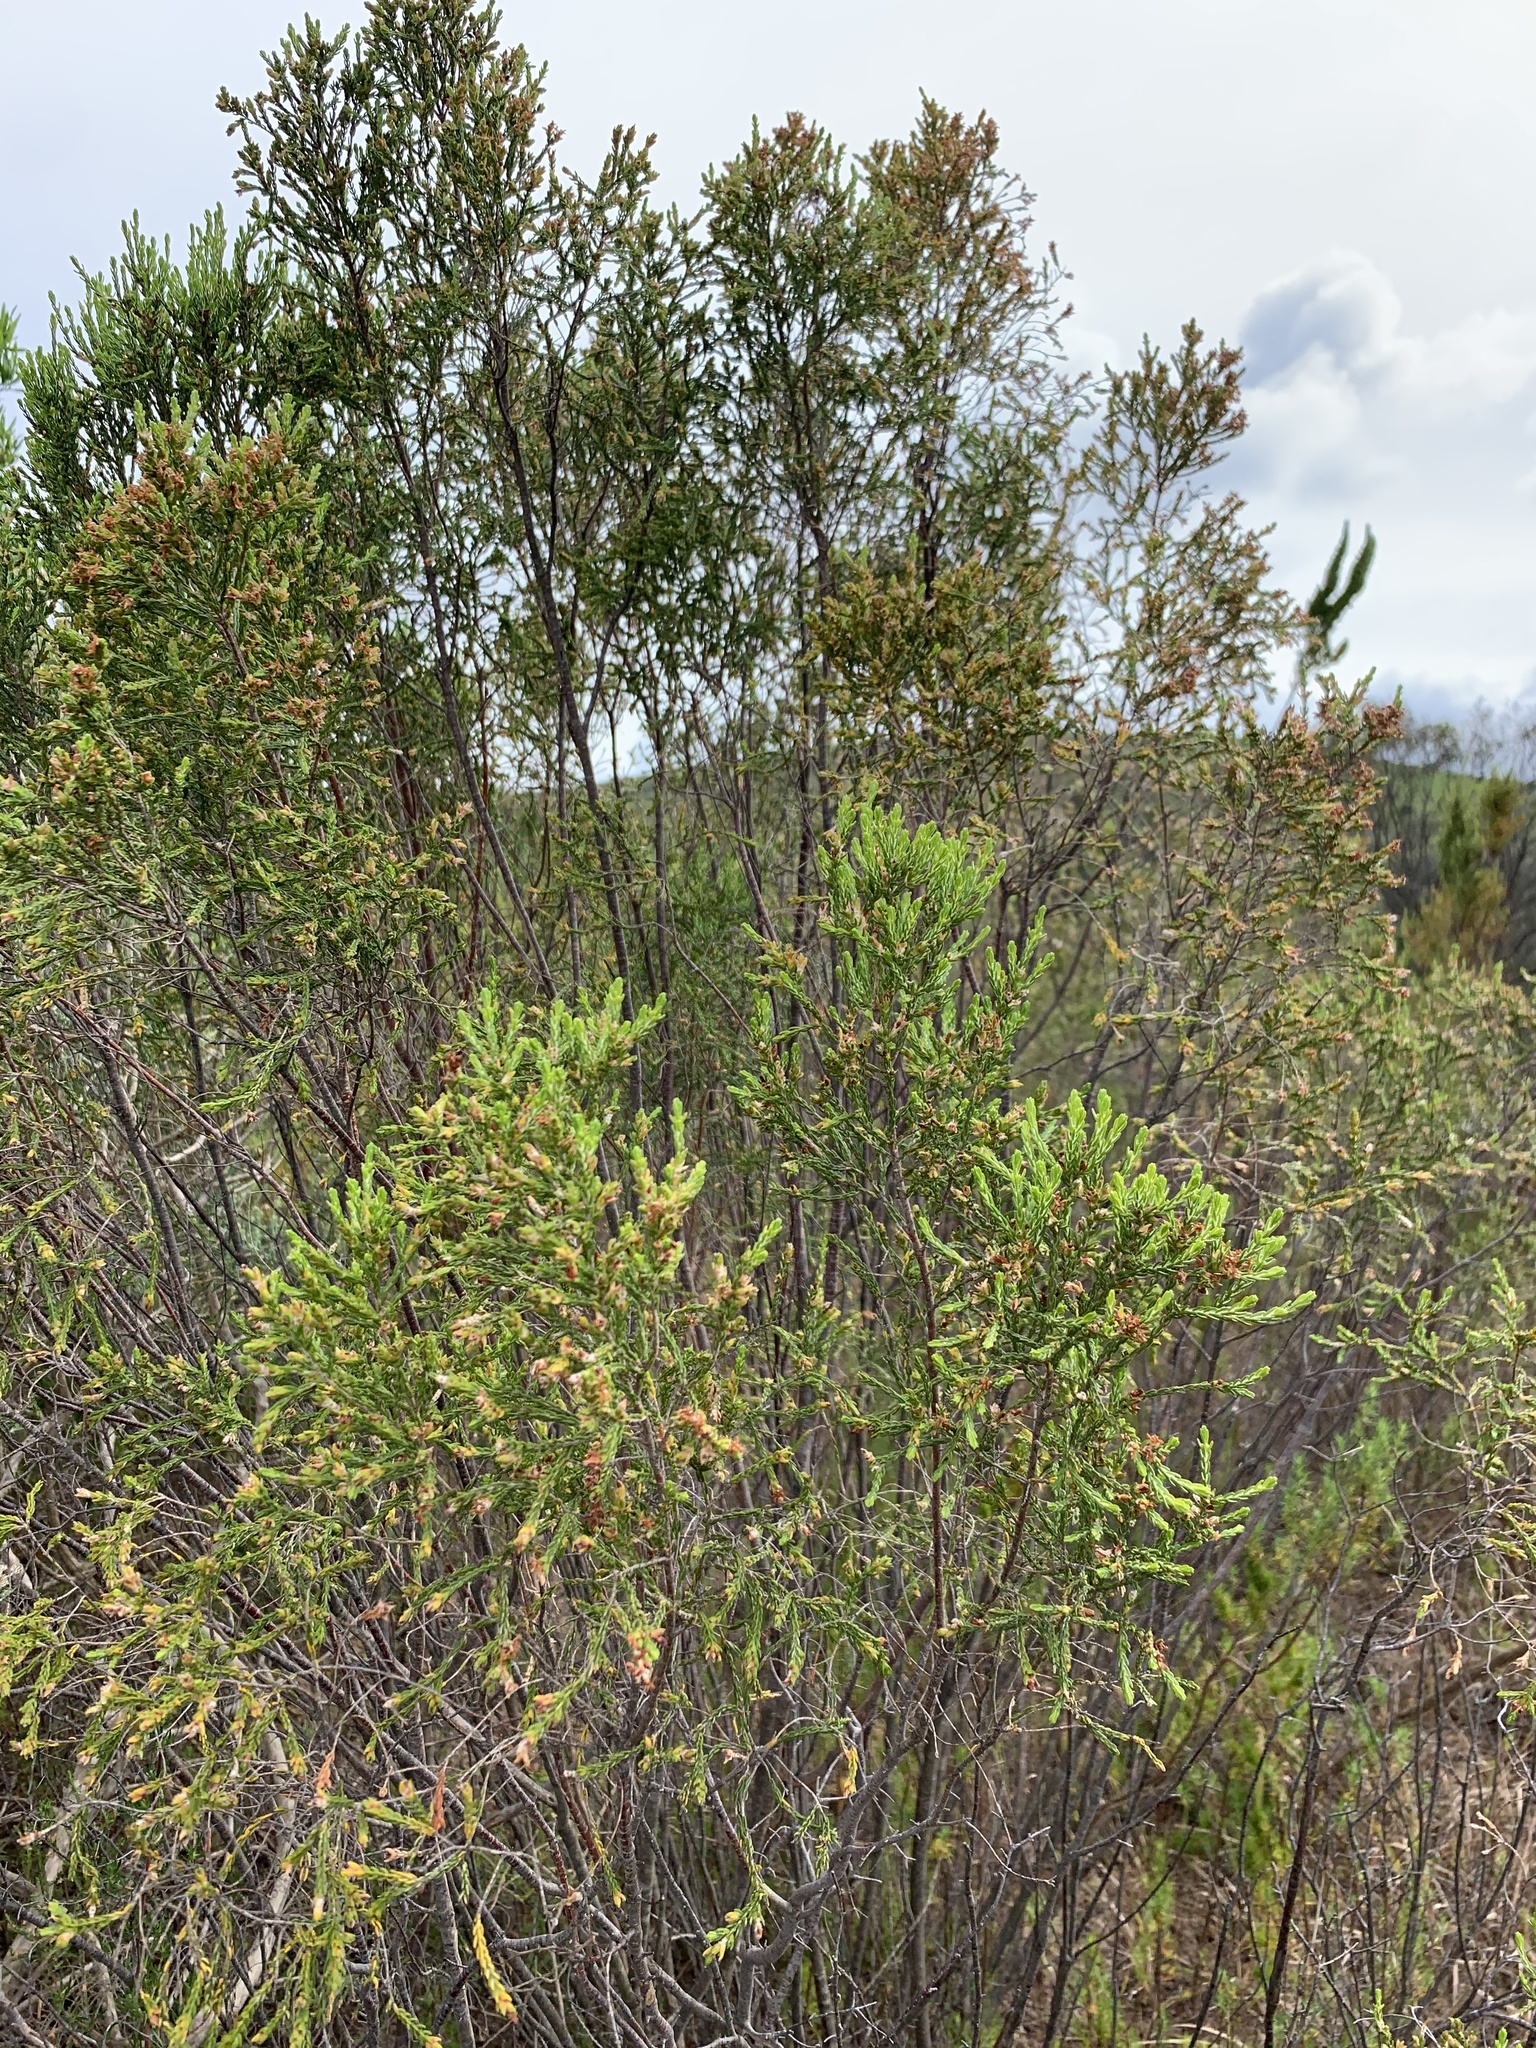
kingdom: Plantae
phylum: Tracheophyta
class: Magnoliopsida
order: Malvales
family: Thymelaeaceae
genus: Passerina
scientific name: Passerina corymbosa
